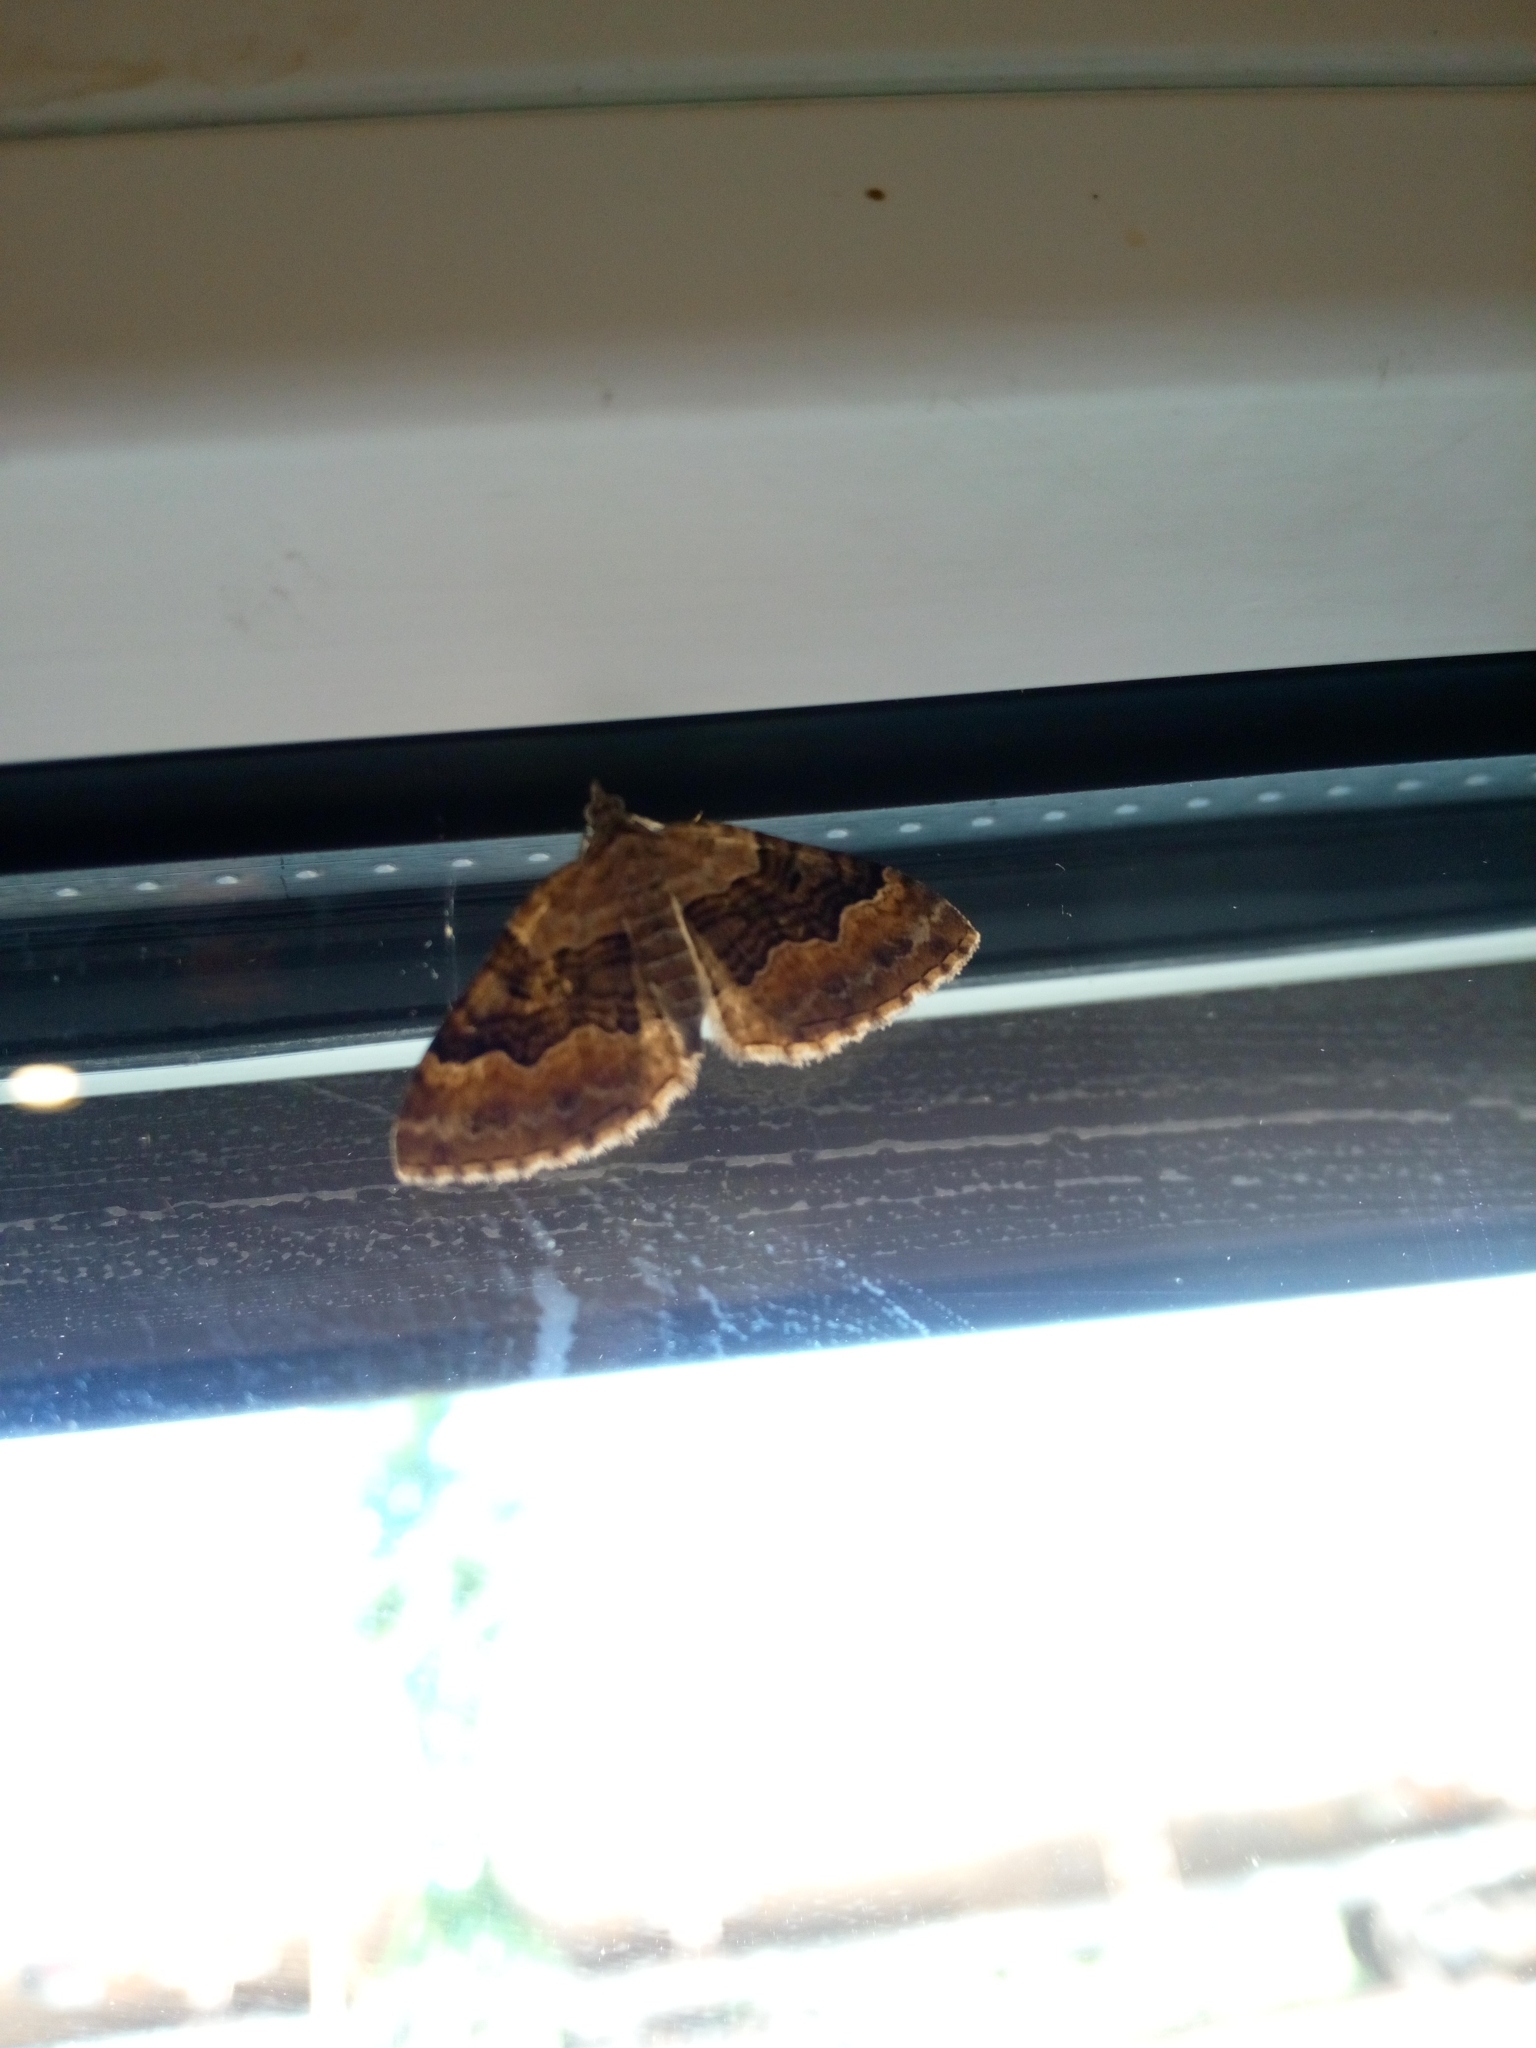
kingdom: Animalia
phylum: Arthropoda
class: Insecta
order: Lepidoptera
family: Geometridae
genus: Xanthorhoe
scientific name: Xanthorhoe quadrifasiata
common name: Large twin-spot carpet
